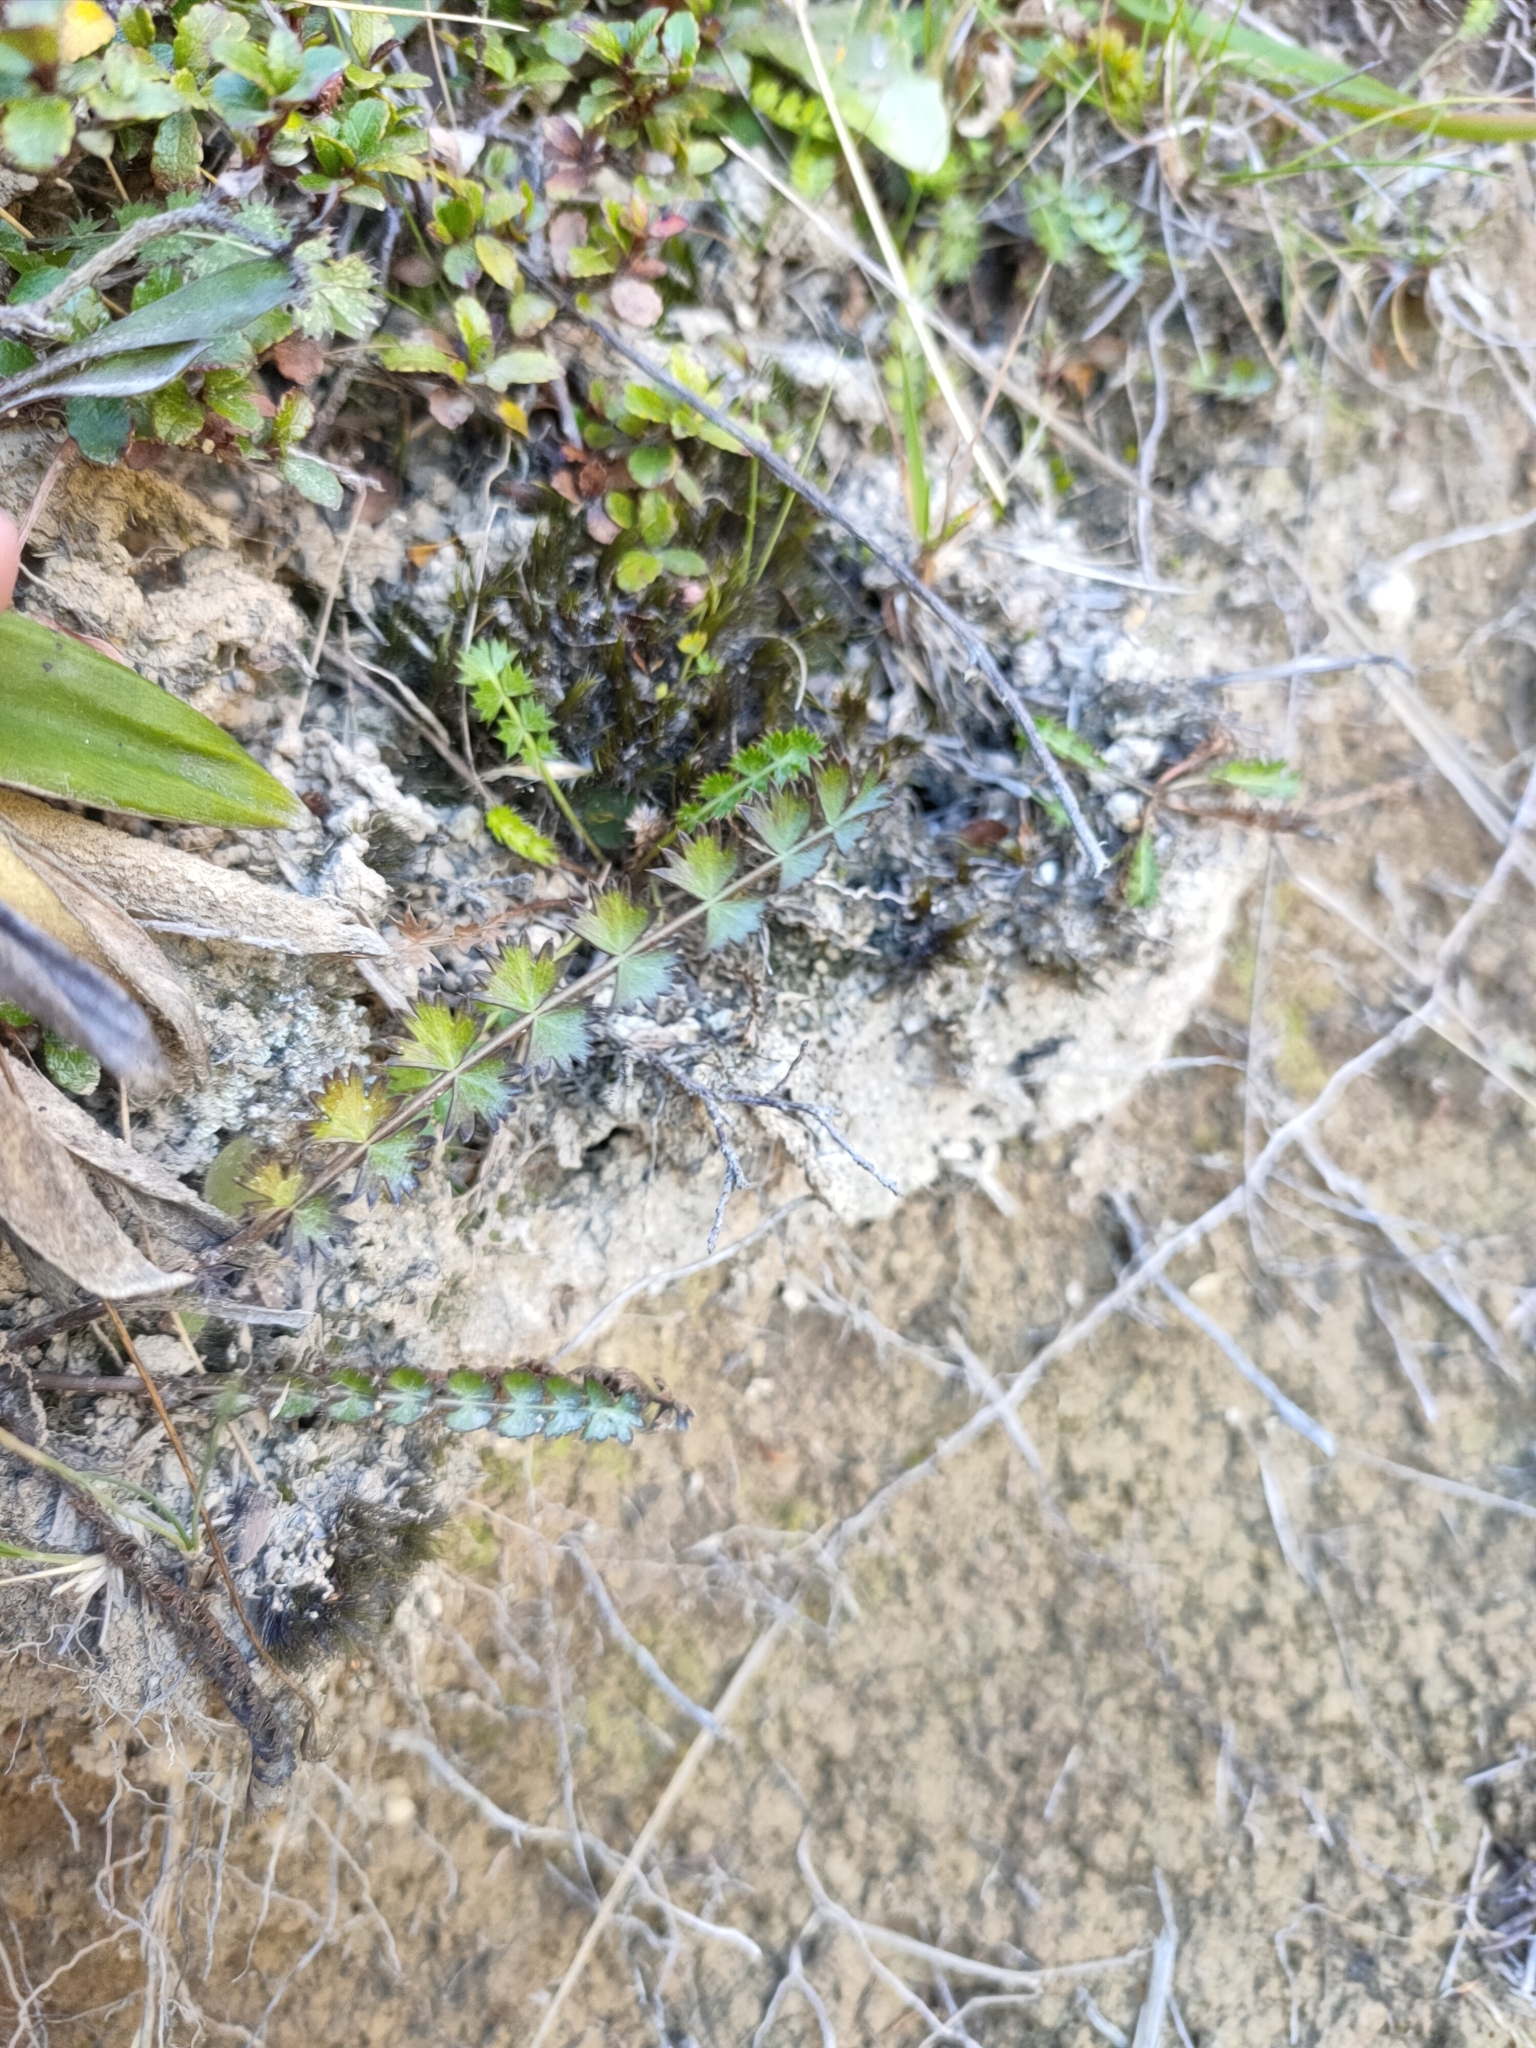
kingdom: Plantae
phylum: Tracheophyta
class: Magnoliopsida
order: Apiales
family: Apiaceae
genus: Anisotome
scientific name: Anisotome aromatica
